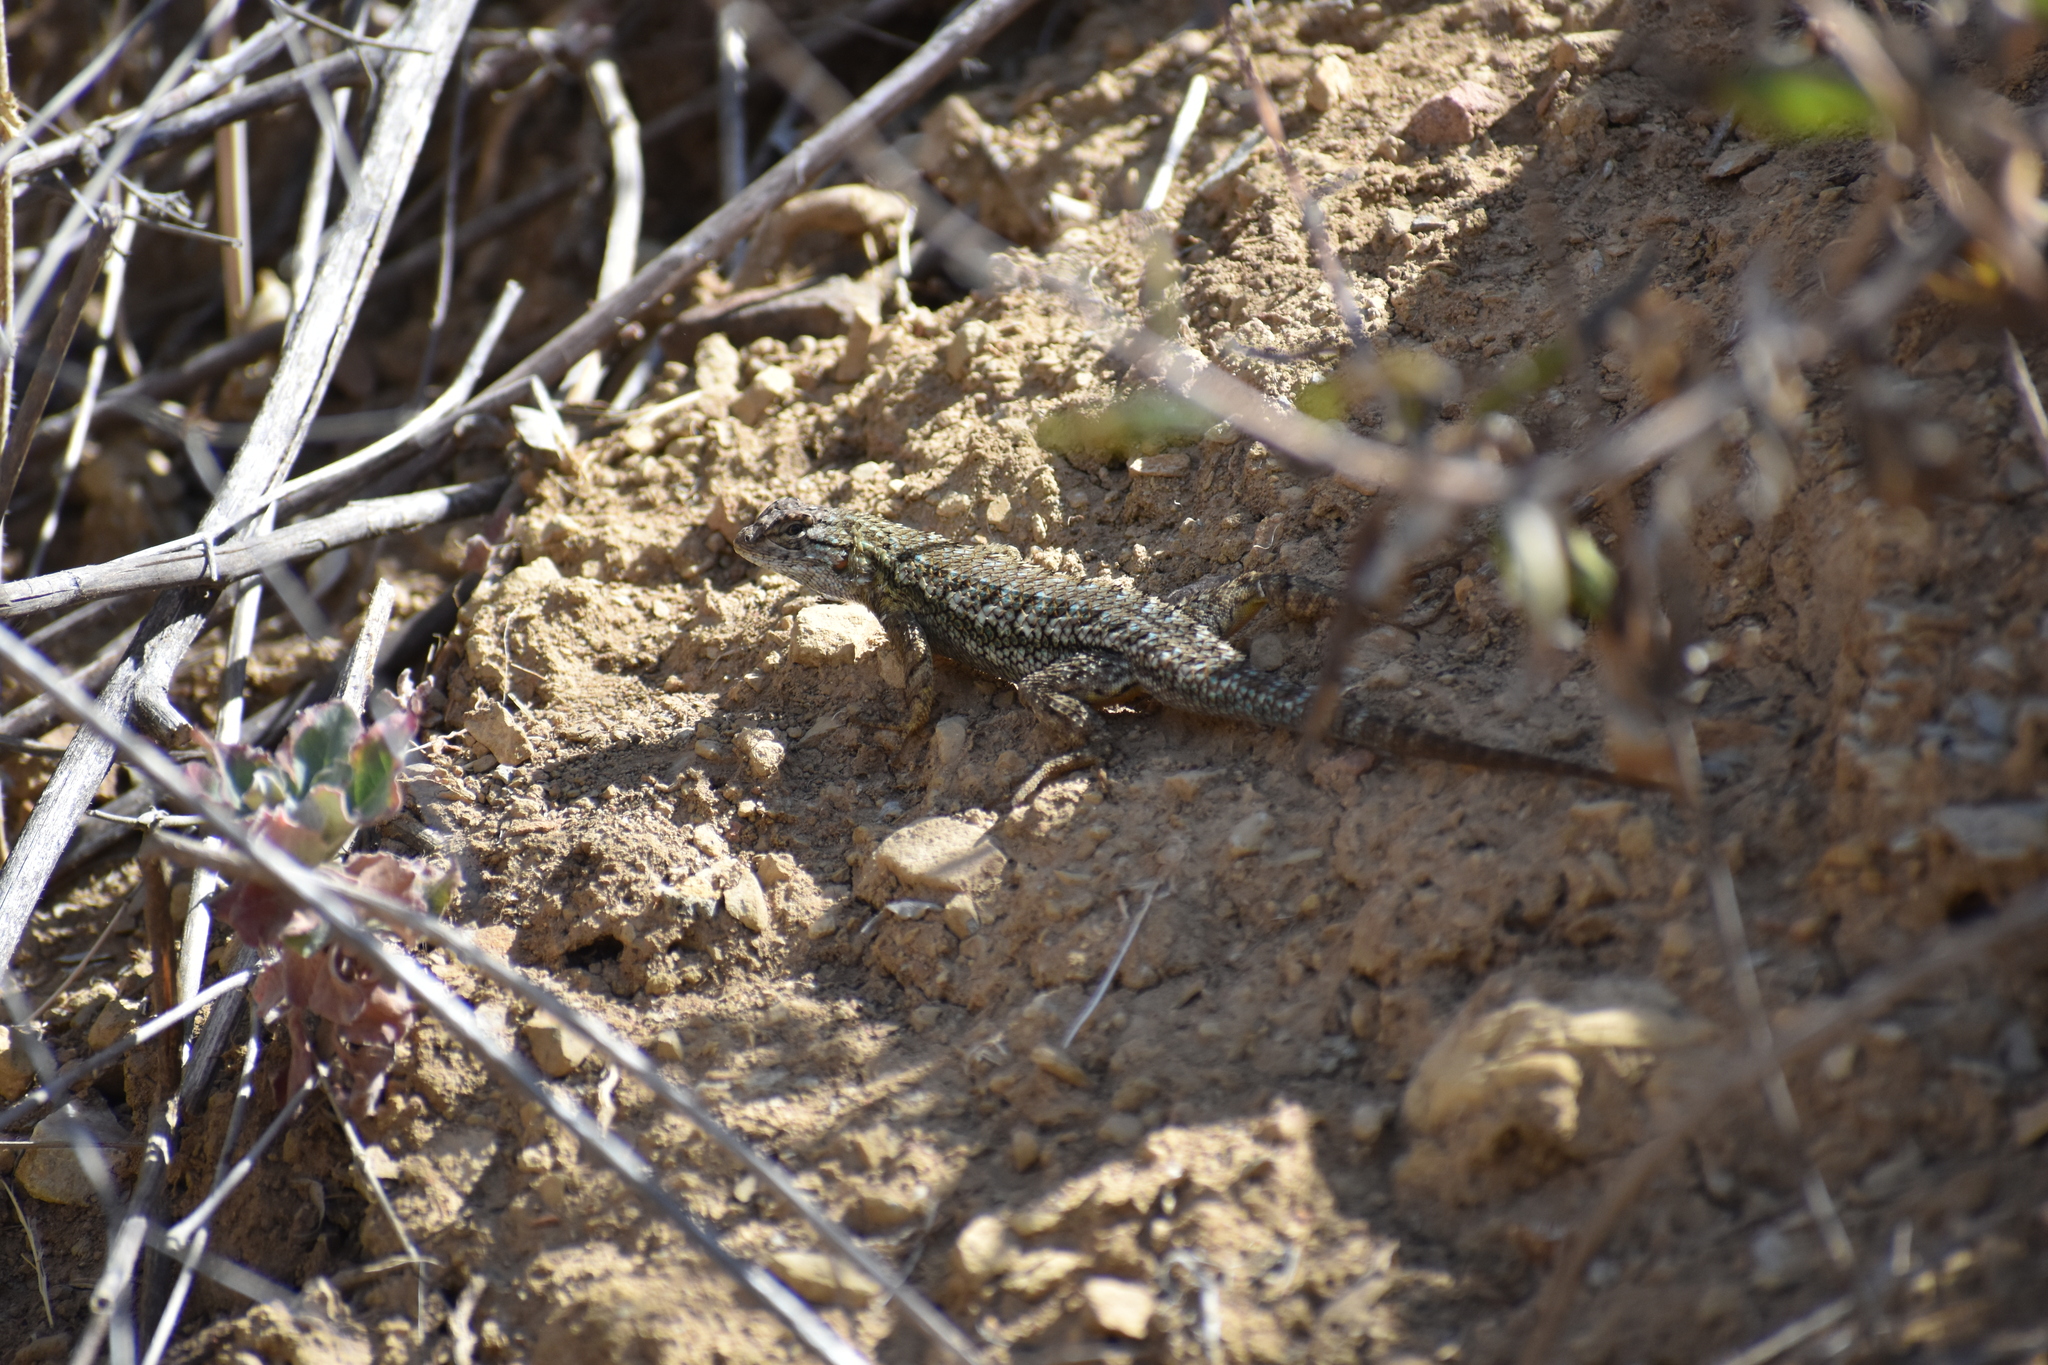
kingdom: Animalia
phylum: Chordata
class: Squamata
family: Phrynosomatidae
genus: Sceloporus
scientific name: Sceloporus occidentalis
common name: Western fence lizard
